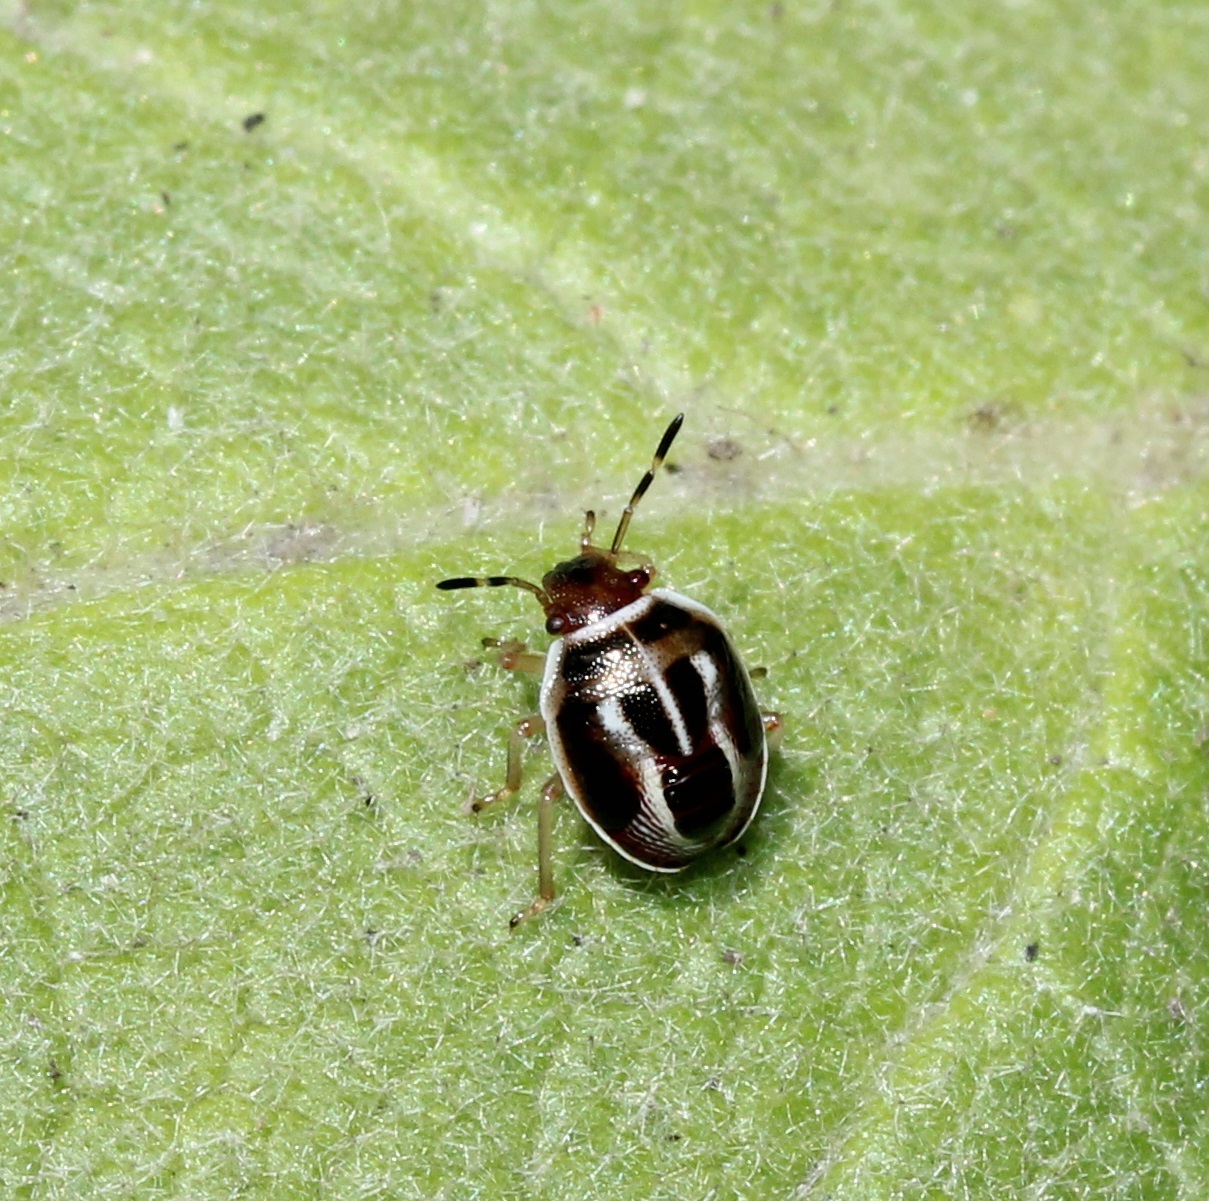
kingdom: Animalia
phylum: Arthropoda
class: Insecta
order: Hemiptera
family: Pentatomidae
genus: Mormidea
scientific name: Mormidea lugens
